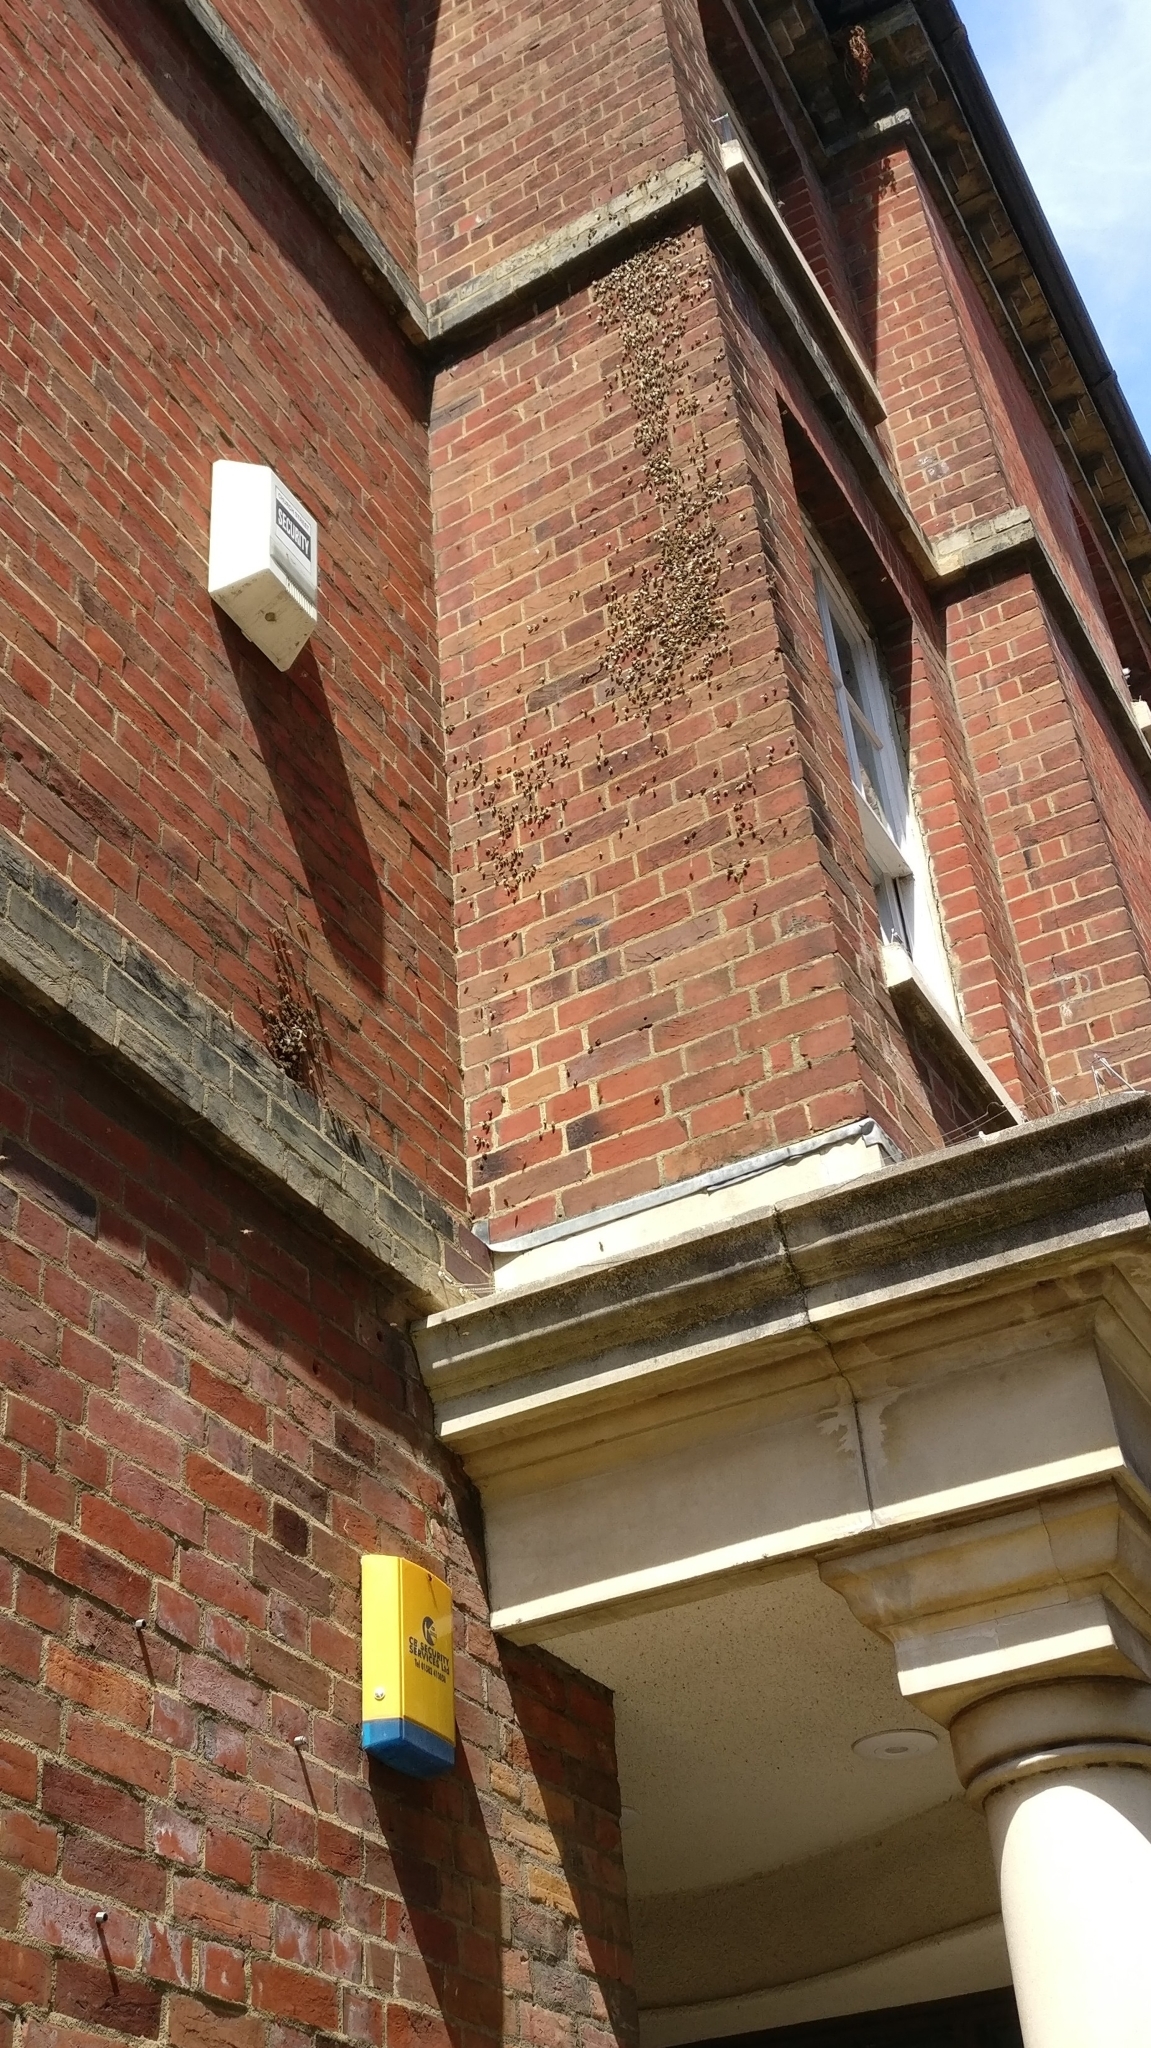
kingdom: Animalia
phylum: Arthropoda
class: Insecta
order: Hymenoptera
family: Apidae
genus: Apis
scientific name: Apis mellifera
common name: Honey bee
